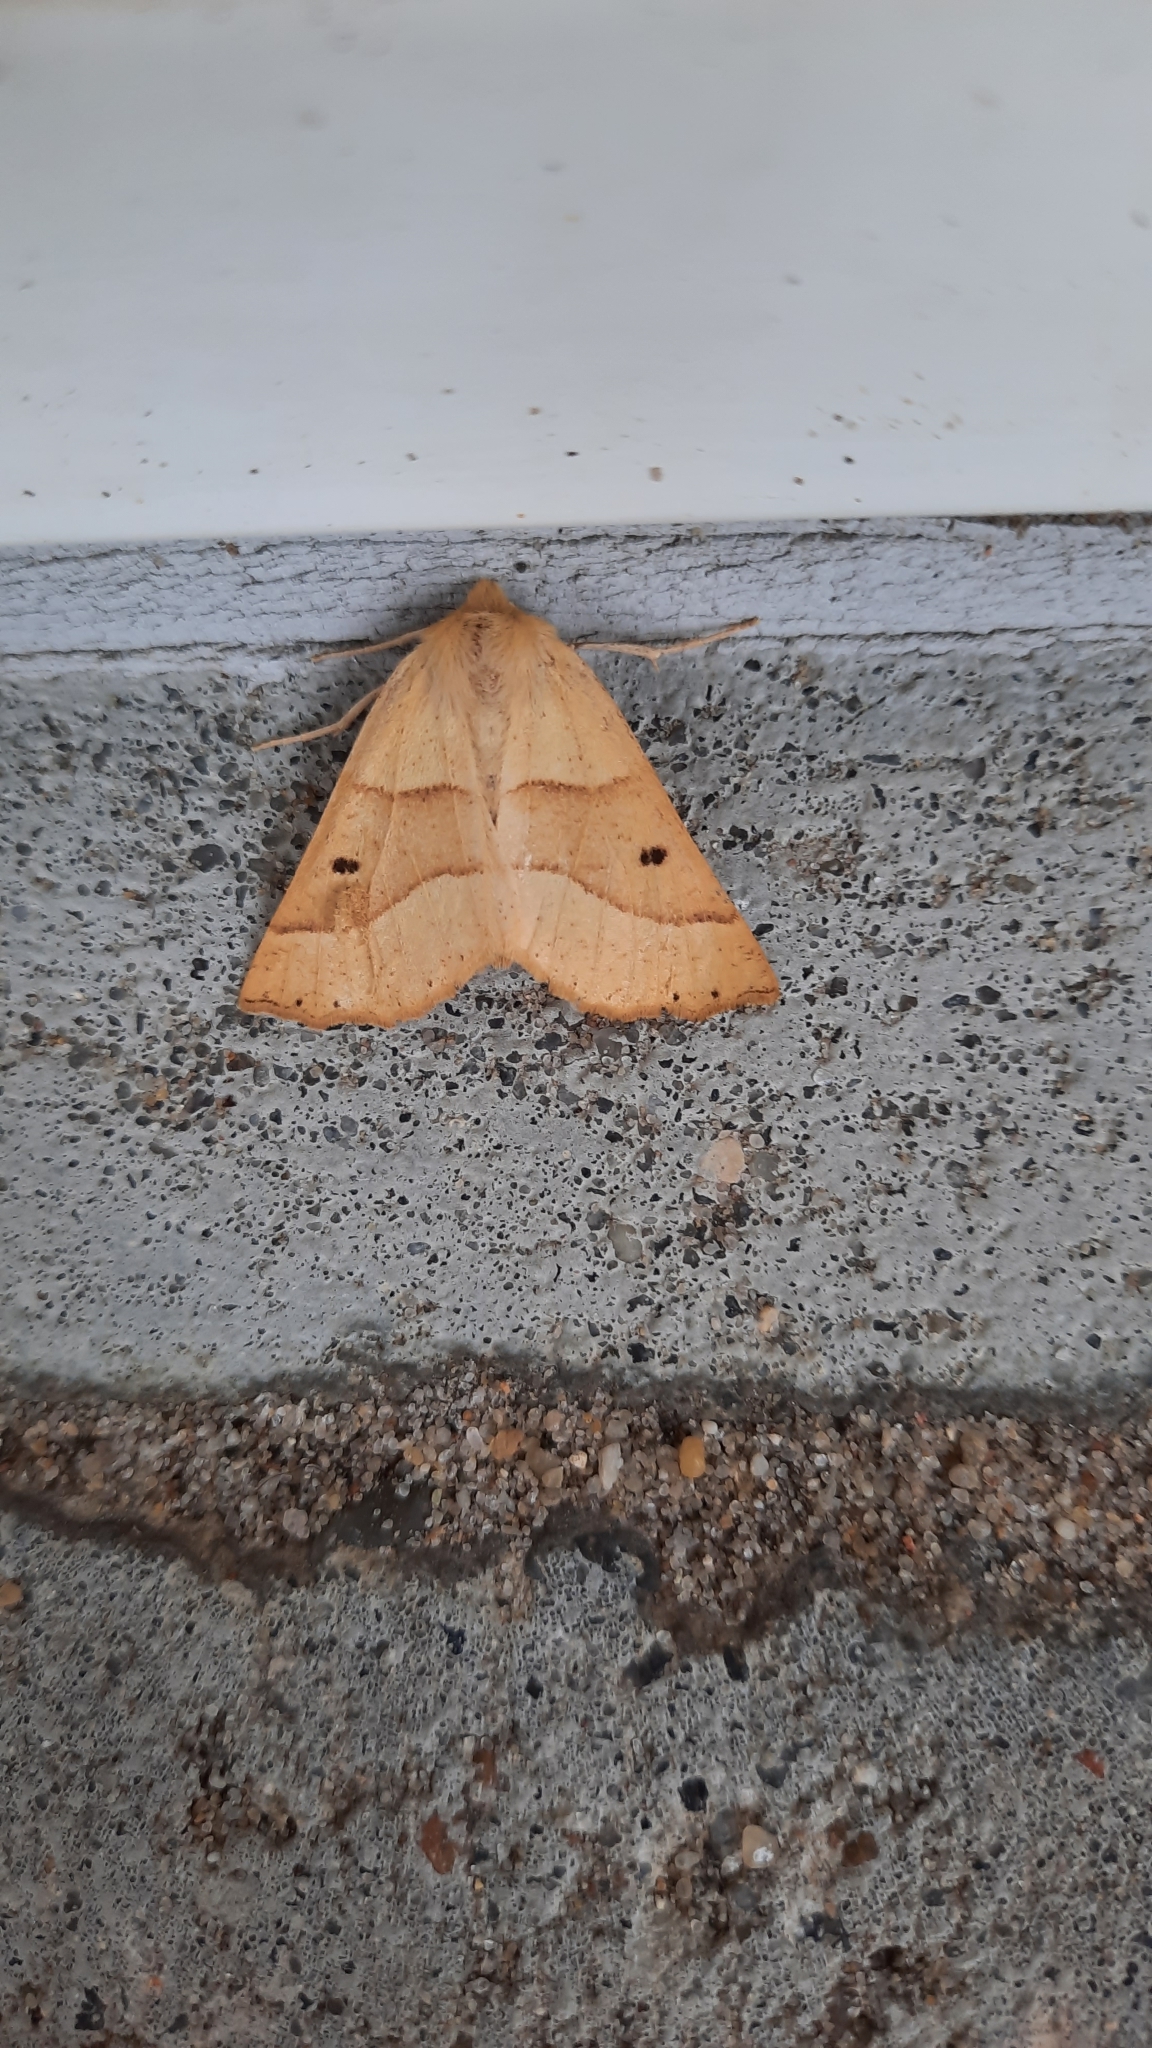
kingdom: Animalia
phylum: Arthropoda
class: Insecta
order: Lepidoptera
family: Geometridae
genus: Crocallis
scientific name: Crocallis elinguaria
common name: Scalloped oak
